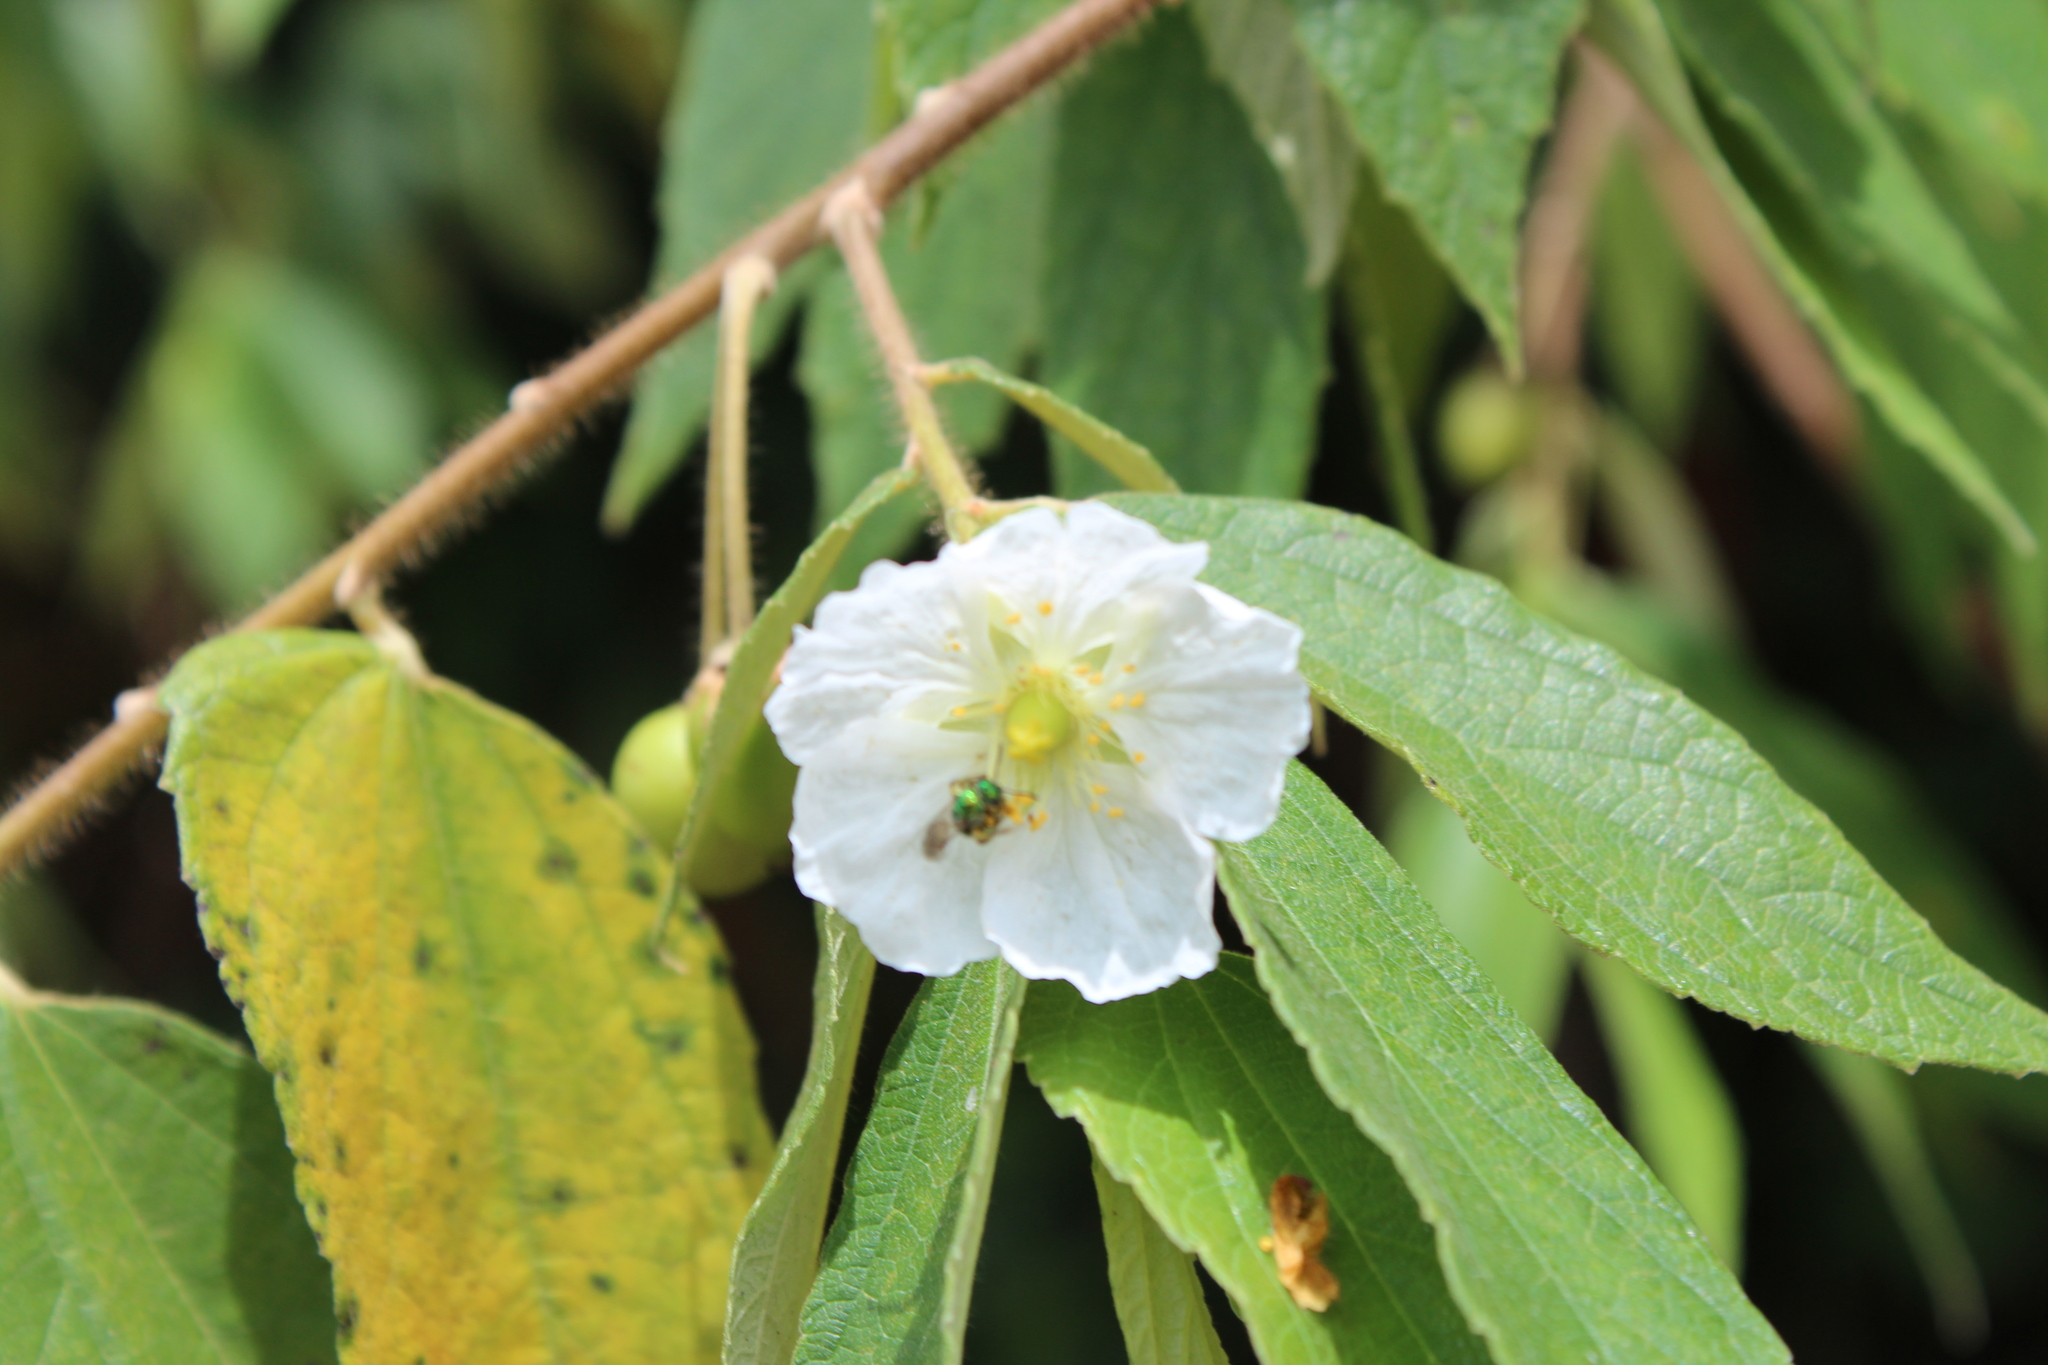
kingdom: Plantae
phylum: Tracheophyta
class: Magnoliopsida
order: Malvales
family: Muntingiaceae
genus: Muntingia
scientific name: Muntingia calabura
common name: Strawberrytree
